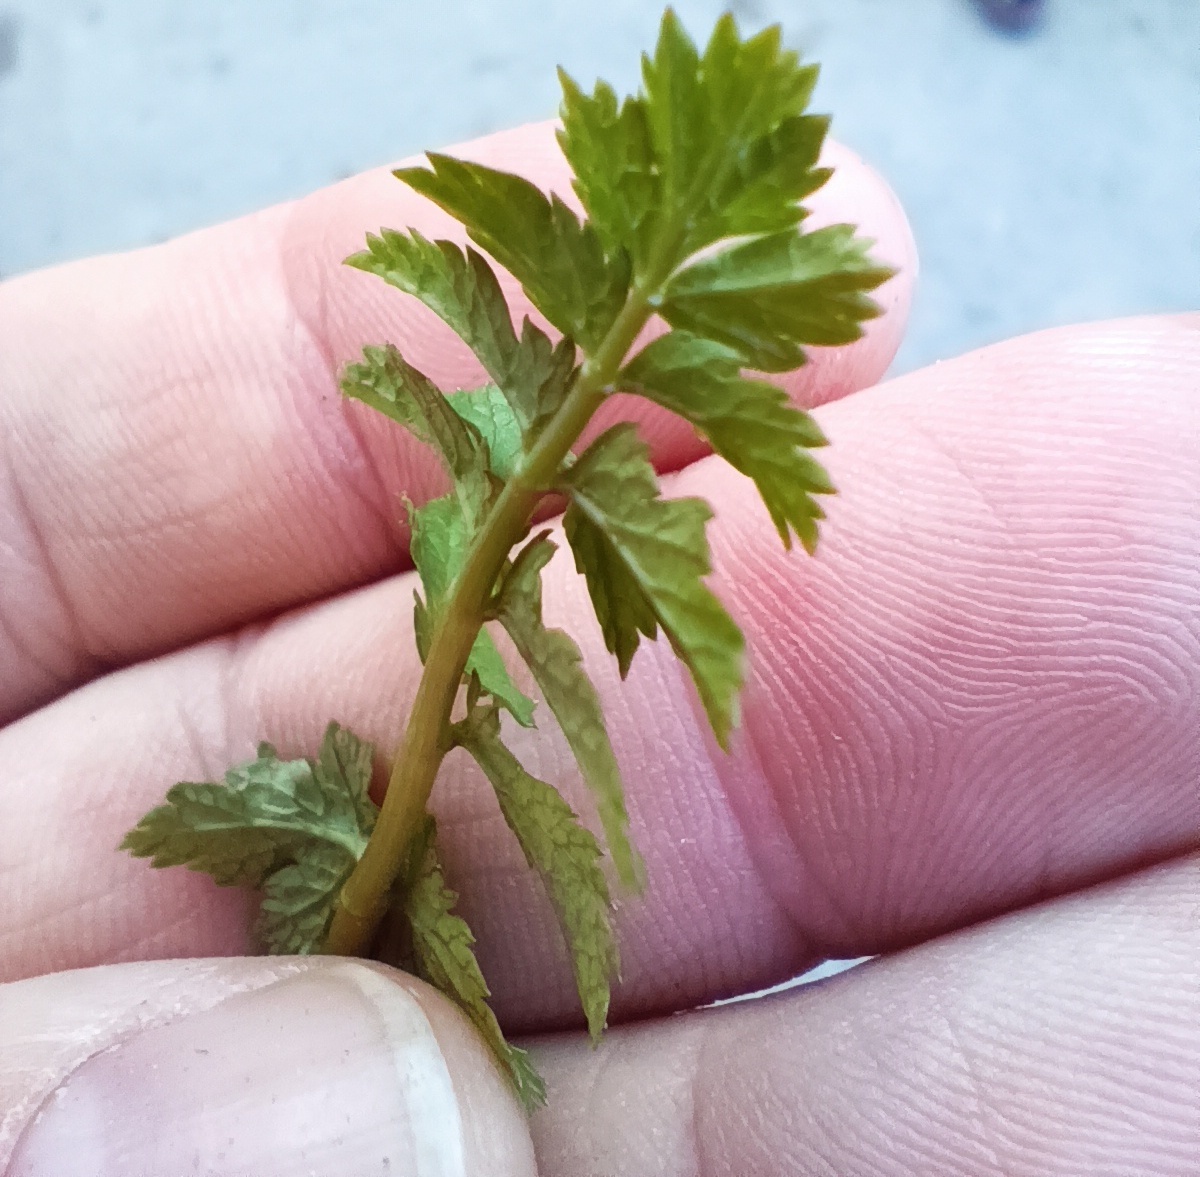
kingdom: Plantae
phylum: Tracheophyta
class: Magnoliopsida
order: Apiales
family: Apiaceae
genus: Pastinaca
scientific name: Pastinaca sativa
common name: Wild parsnip
